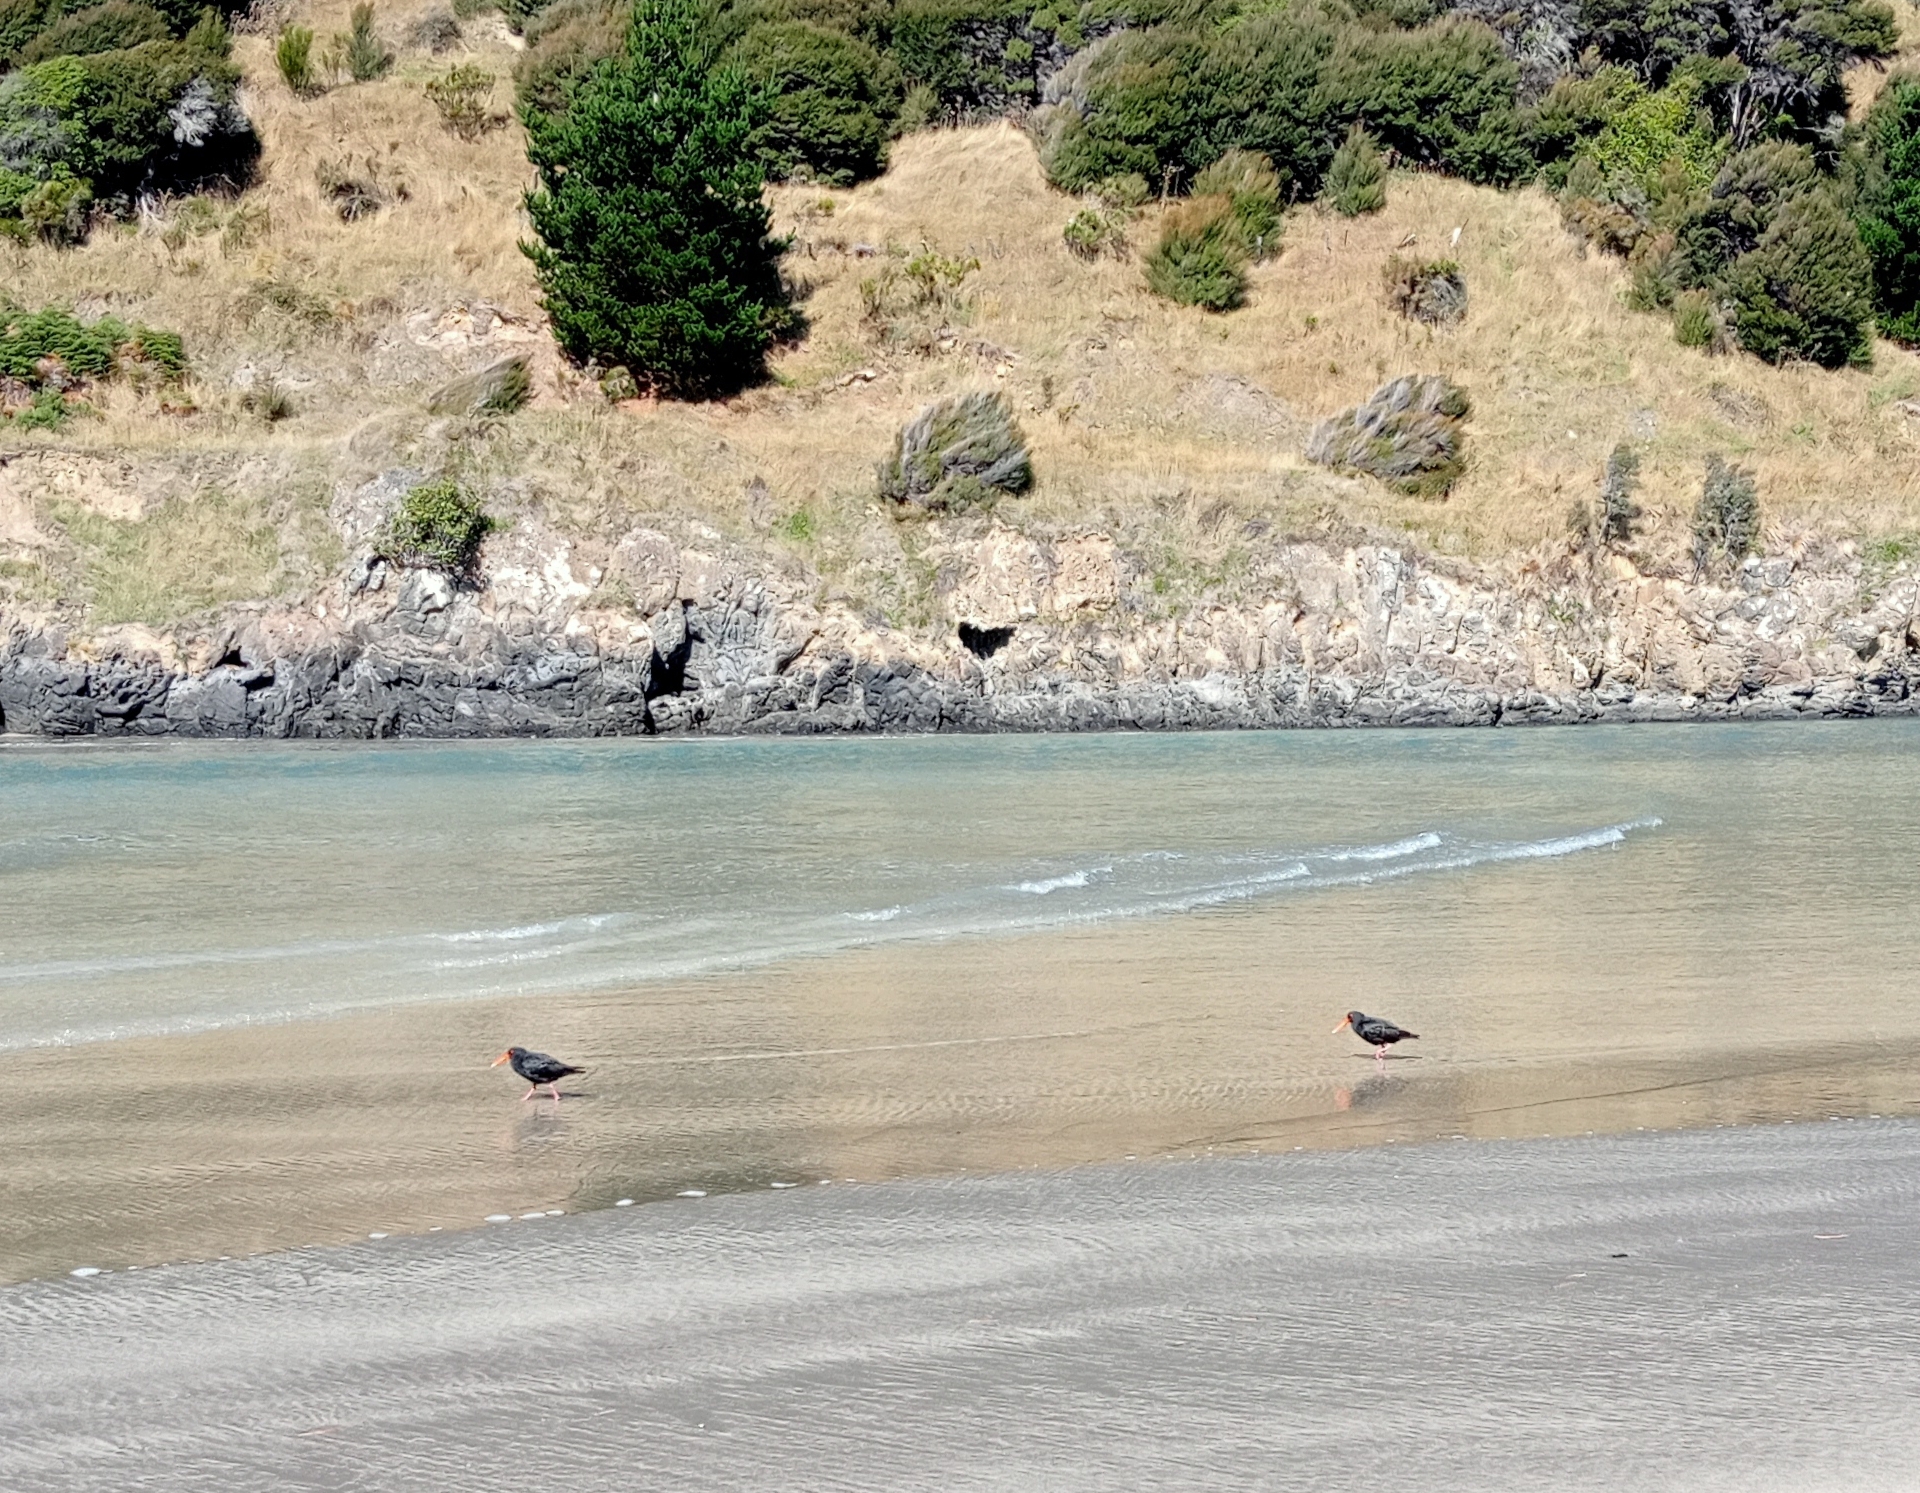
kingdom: Animalia
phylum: Chordata
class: Aves
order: Charadriiformes
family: Haematopodidae
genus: Haematopus
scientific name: Haematopus unicolor
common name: Variable oystercatcher
